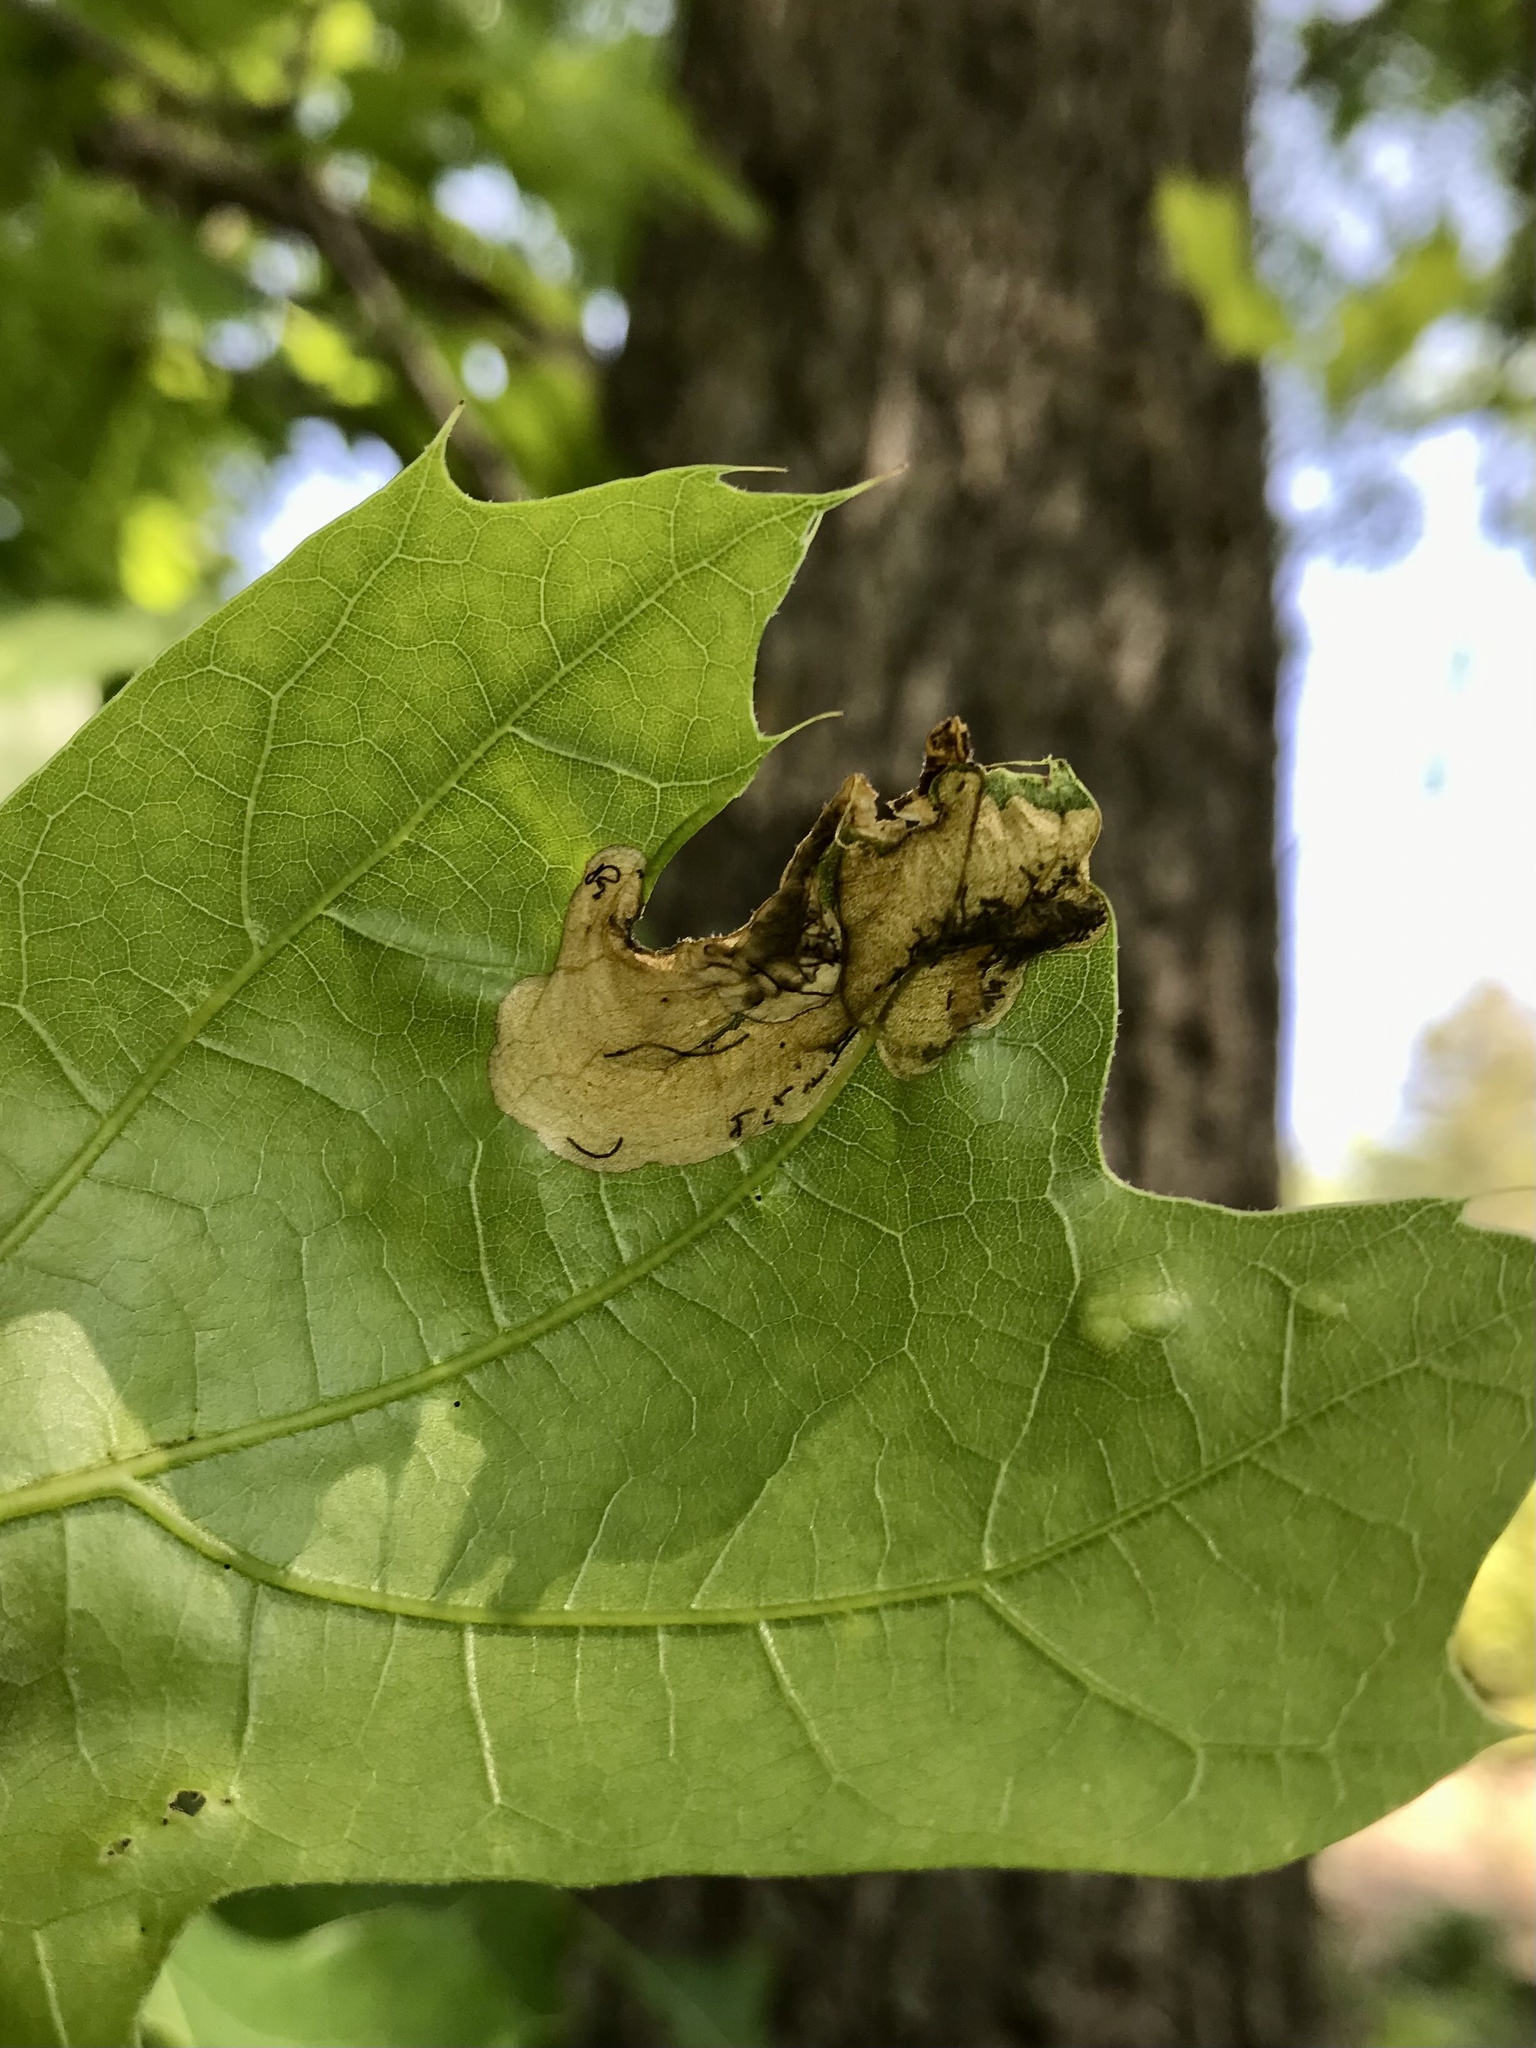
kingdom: Animalia
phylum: Arthropoda
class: Insecta
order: Lepidoptera
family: Eriocraniidae
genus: Dyseriocrania
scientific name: Dyseriocrania griseocapitella
